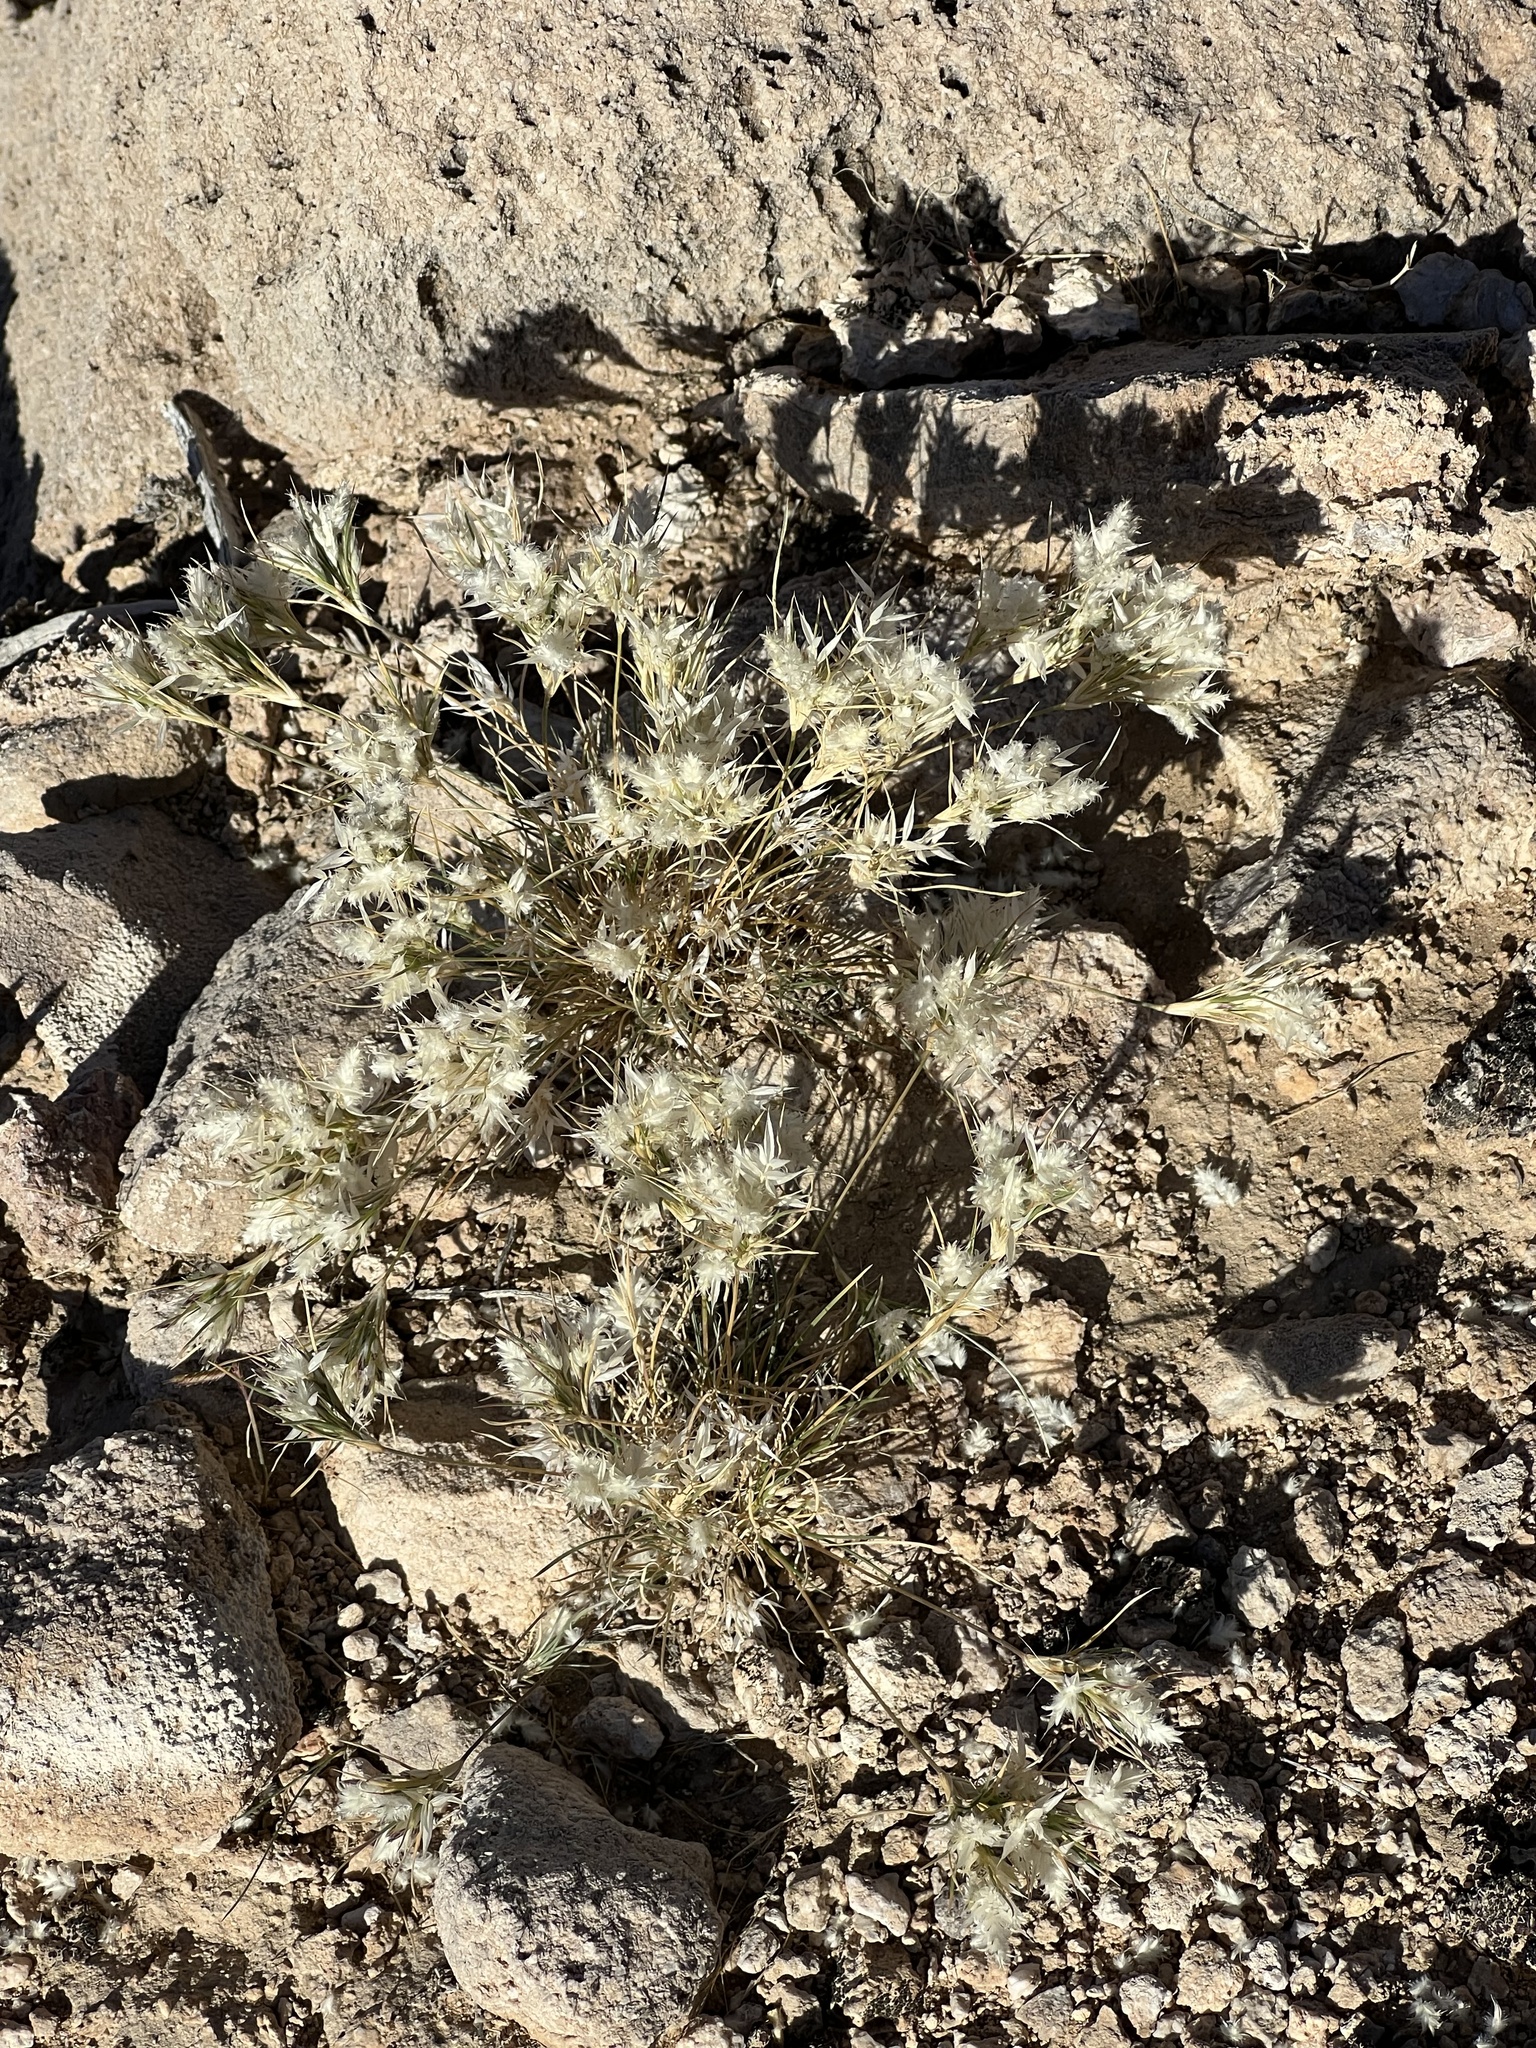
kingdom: Plantae
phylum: Tracheophyta
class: Liliopsida
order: Poales
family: Poaceae
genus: Dasyochloa
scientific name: Dasyochloa pulchella
